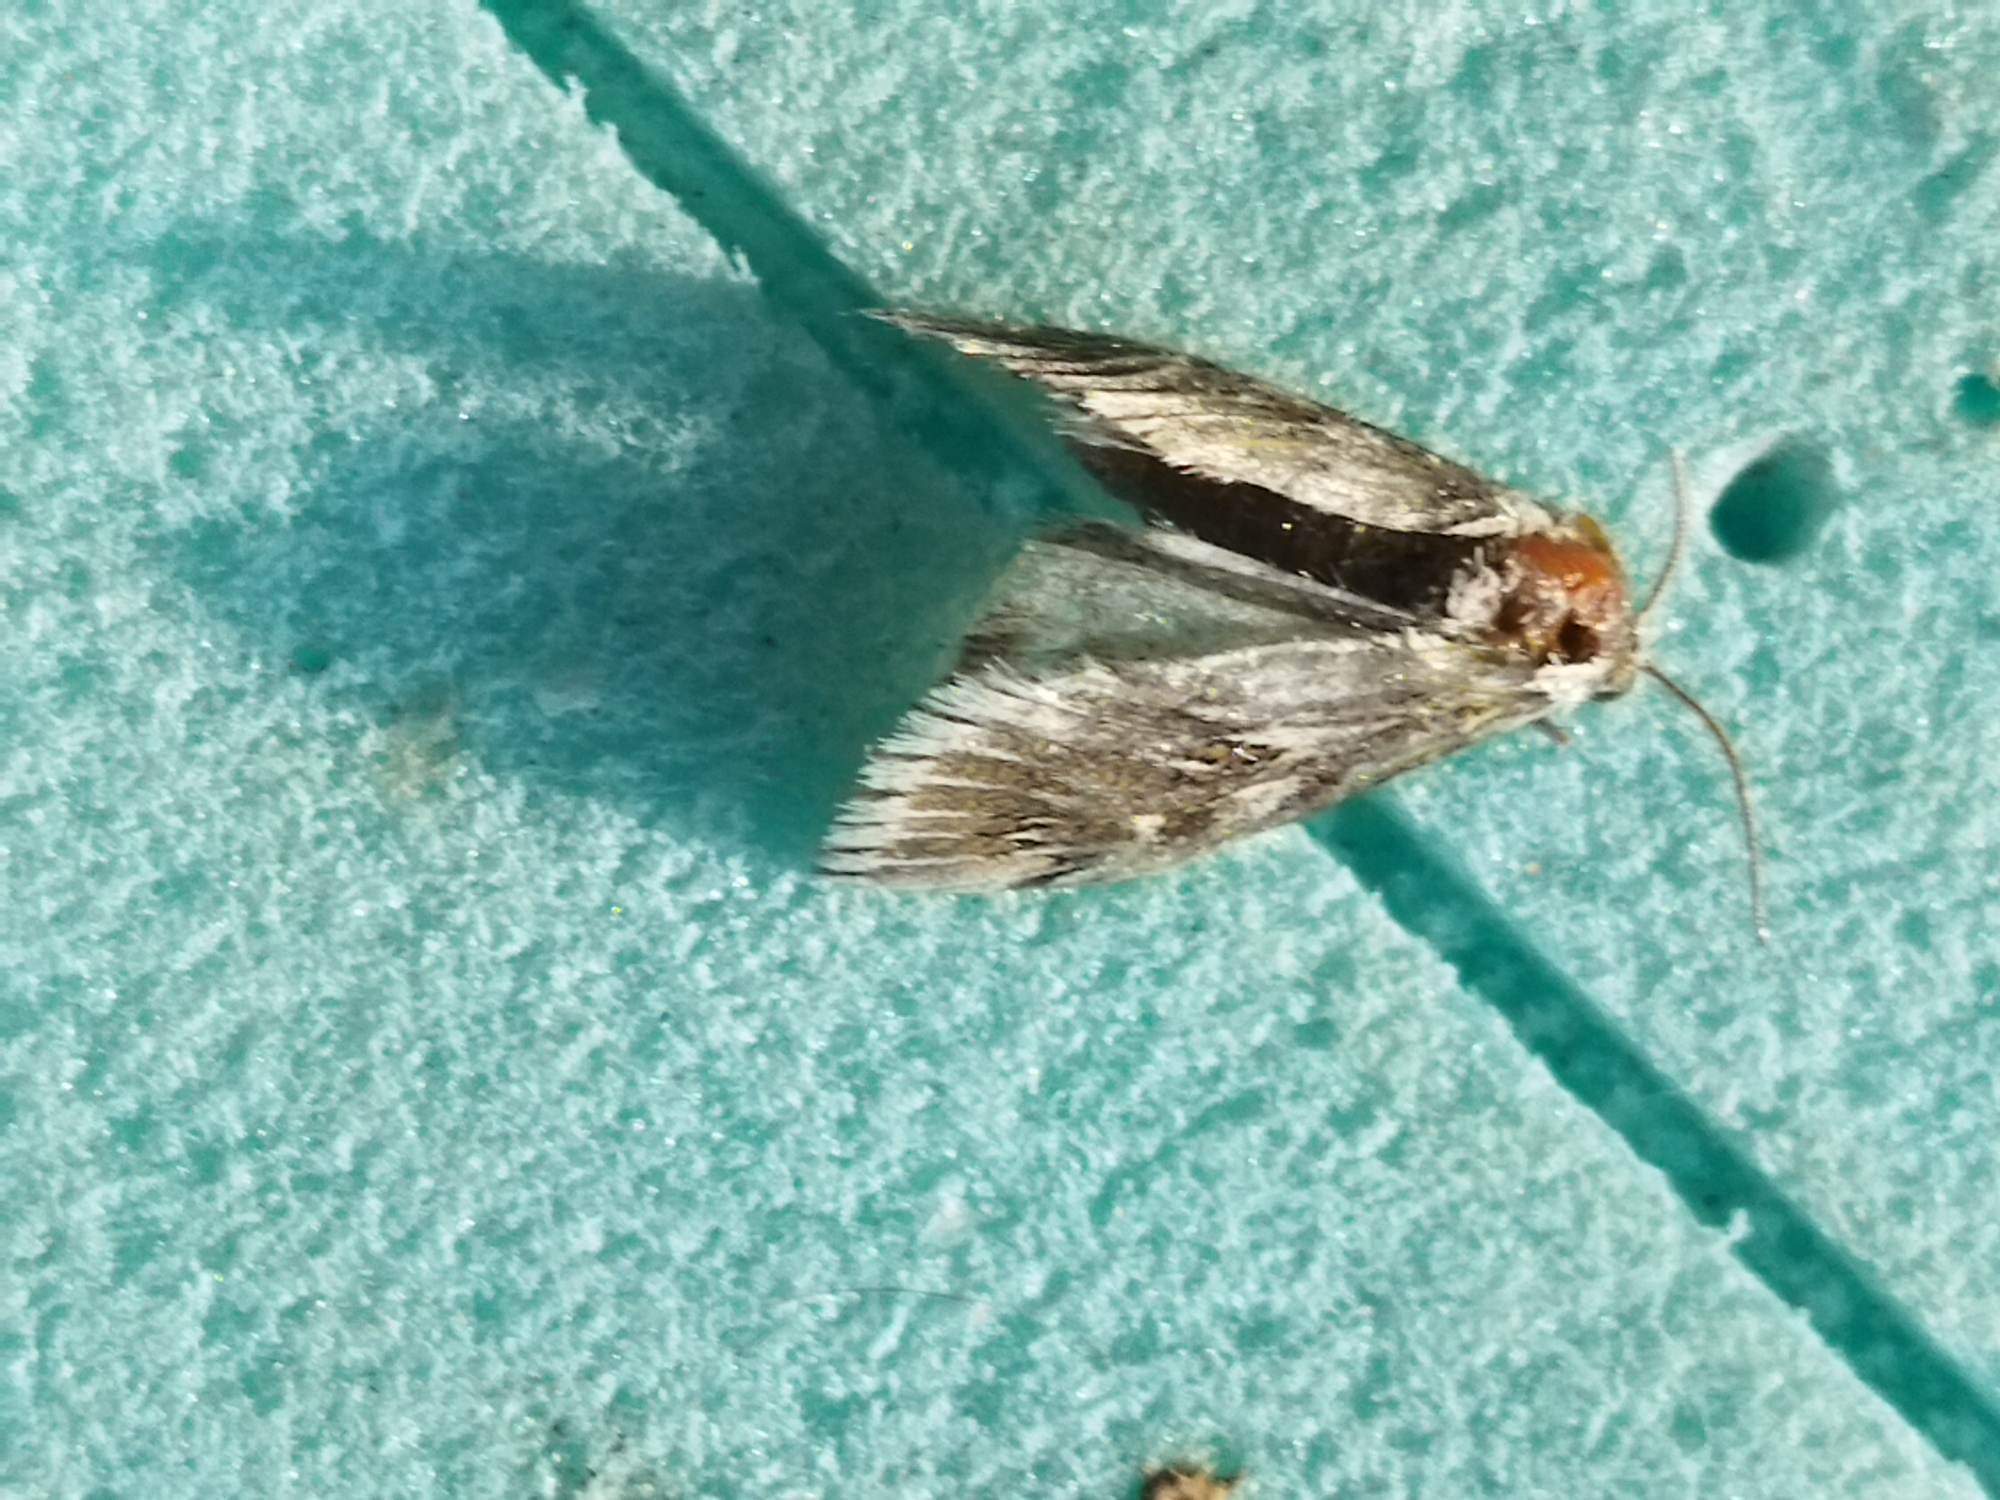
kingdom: Animalia
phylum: Arthropoda
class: Insecta
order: Lepidoptera
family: Crambidae
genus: Cynaeda
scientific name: Cynaeda dentalis
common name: Starry pearl
